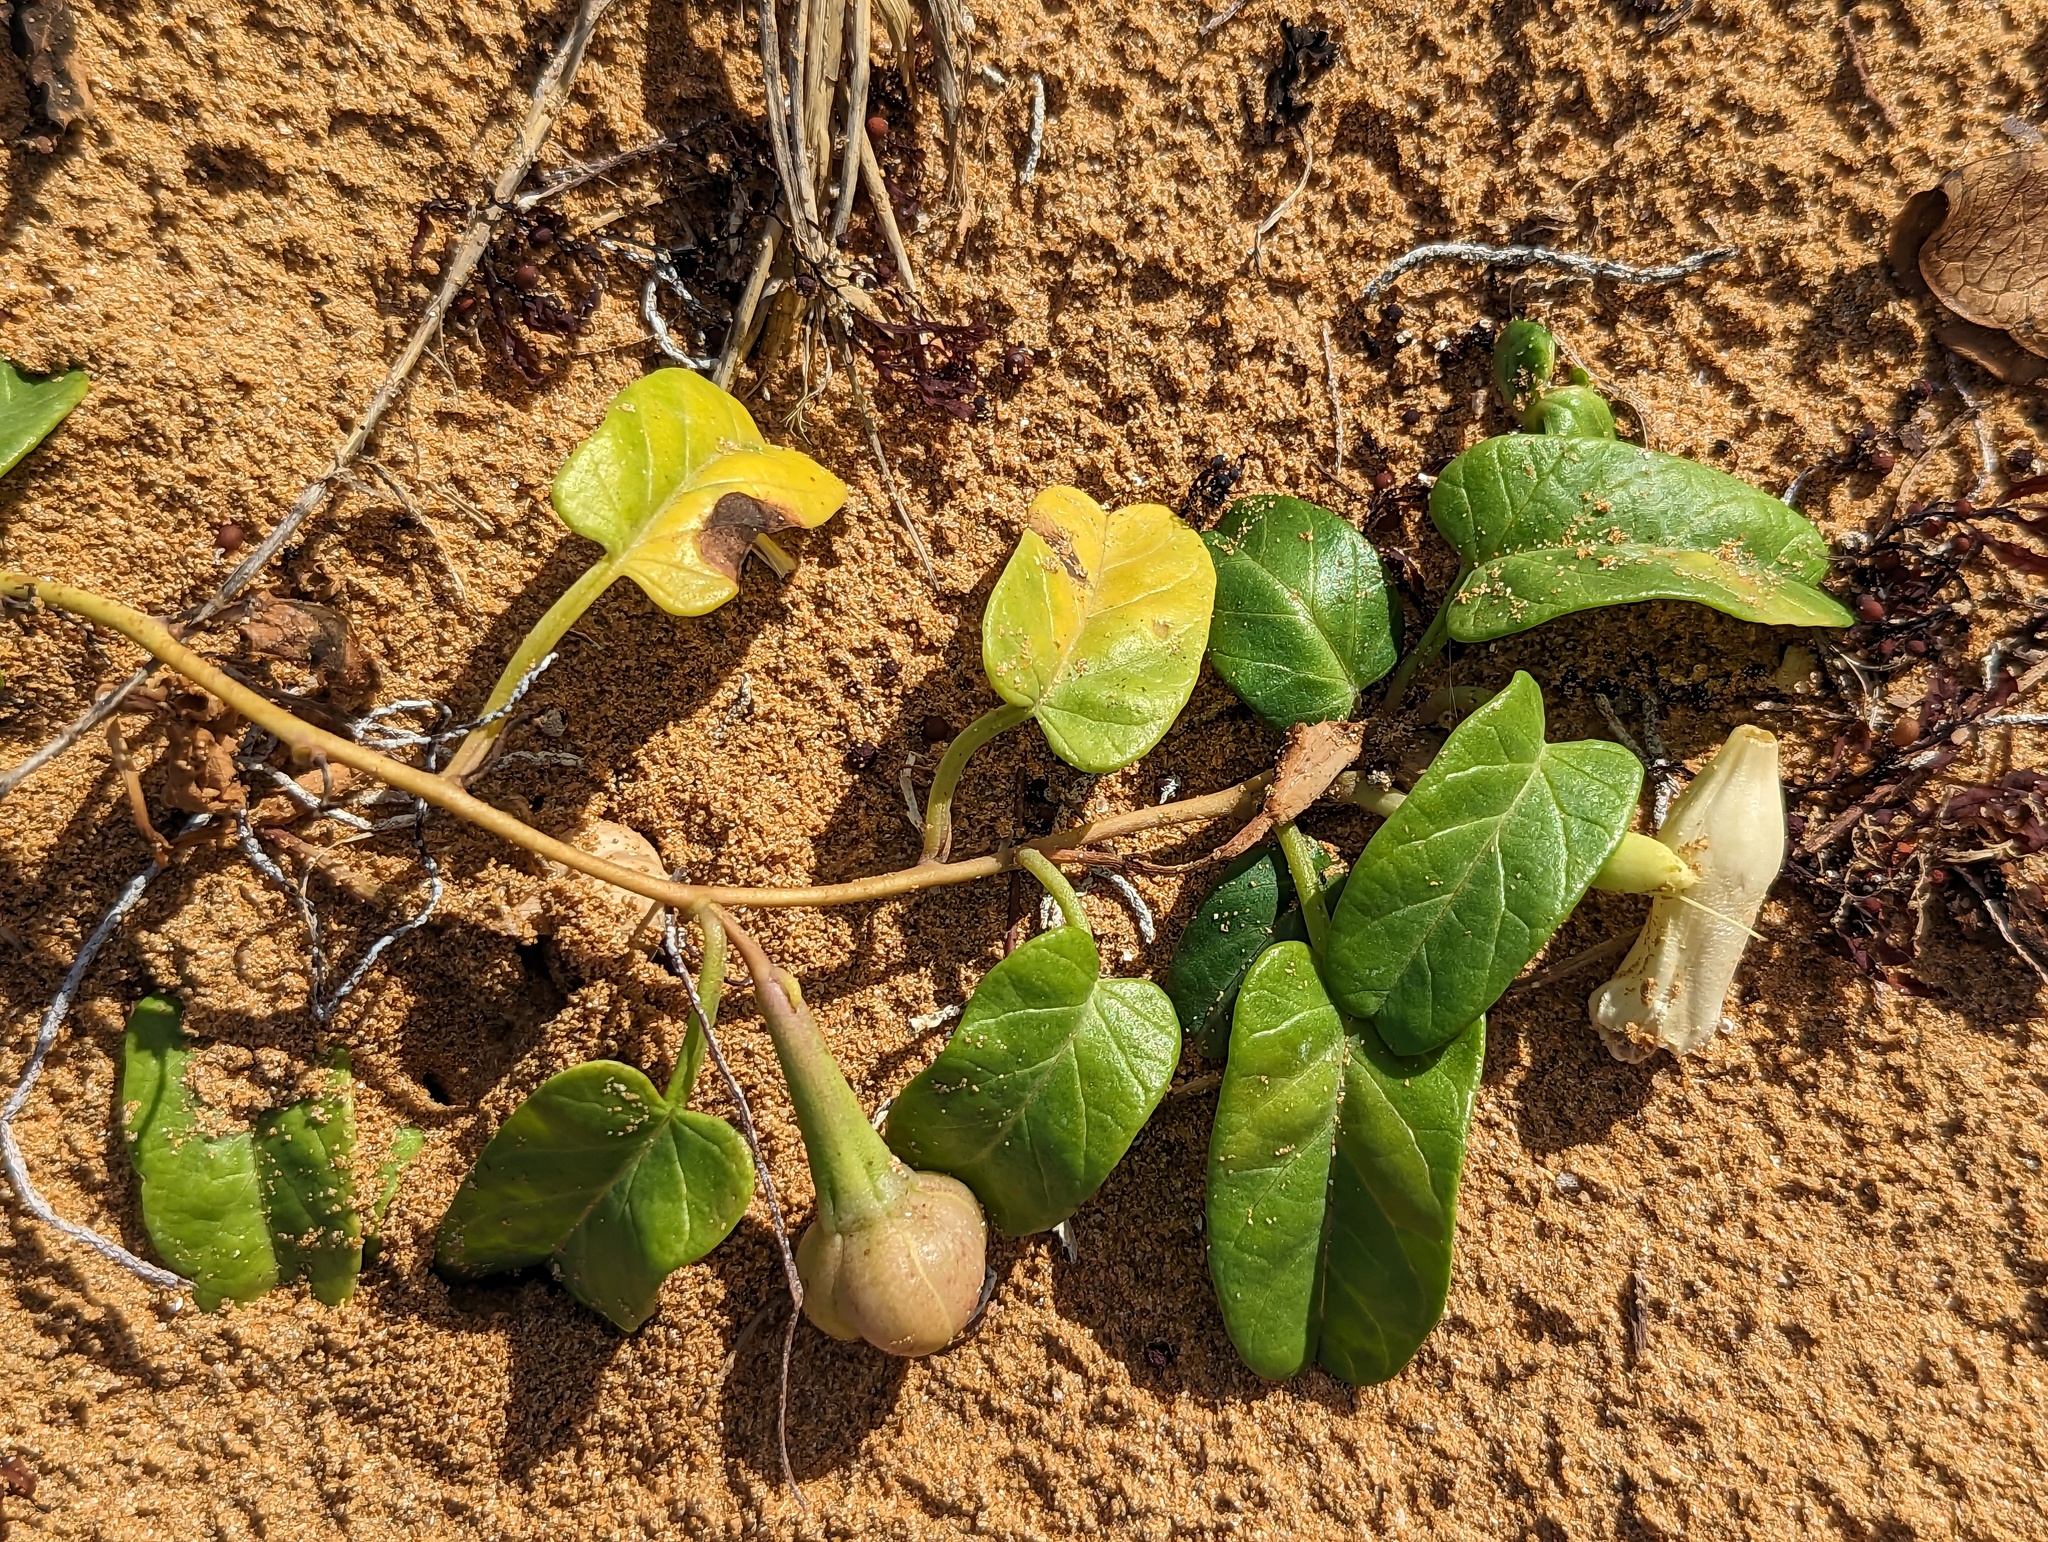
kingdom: Plantae
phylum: Tracheophyta
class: Magnoliopsida
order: Solanales
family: Convolvulaceae
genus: Ipomoea
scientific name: Ipomoea imperati
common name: Fiddle-leaf morning-glory
